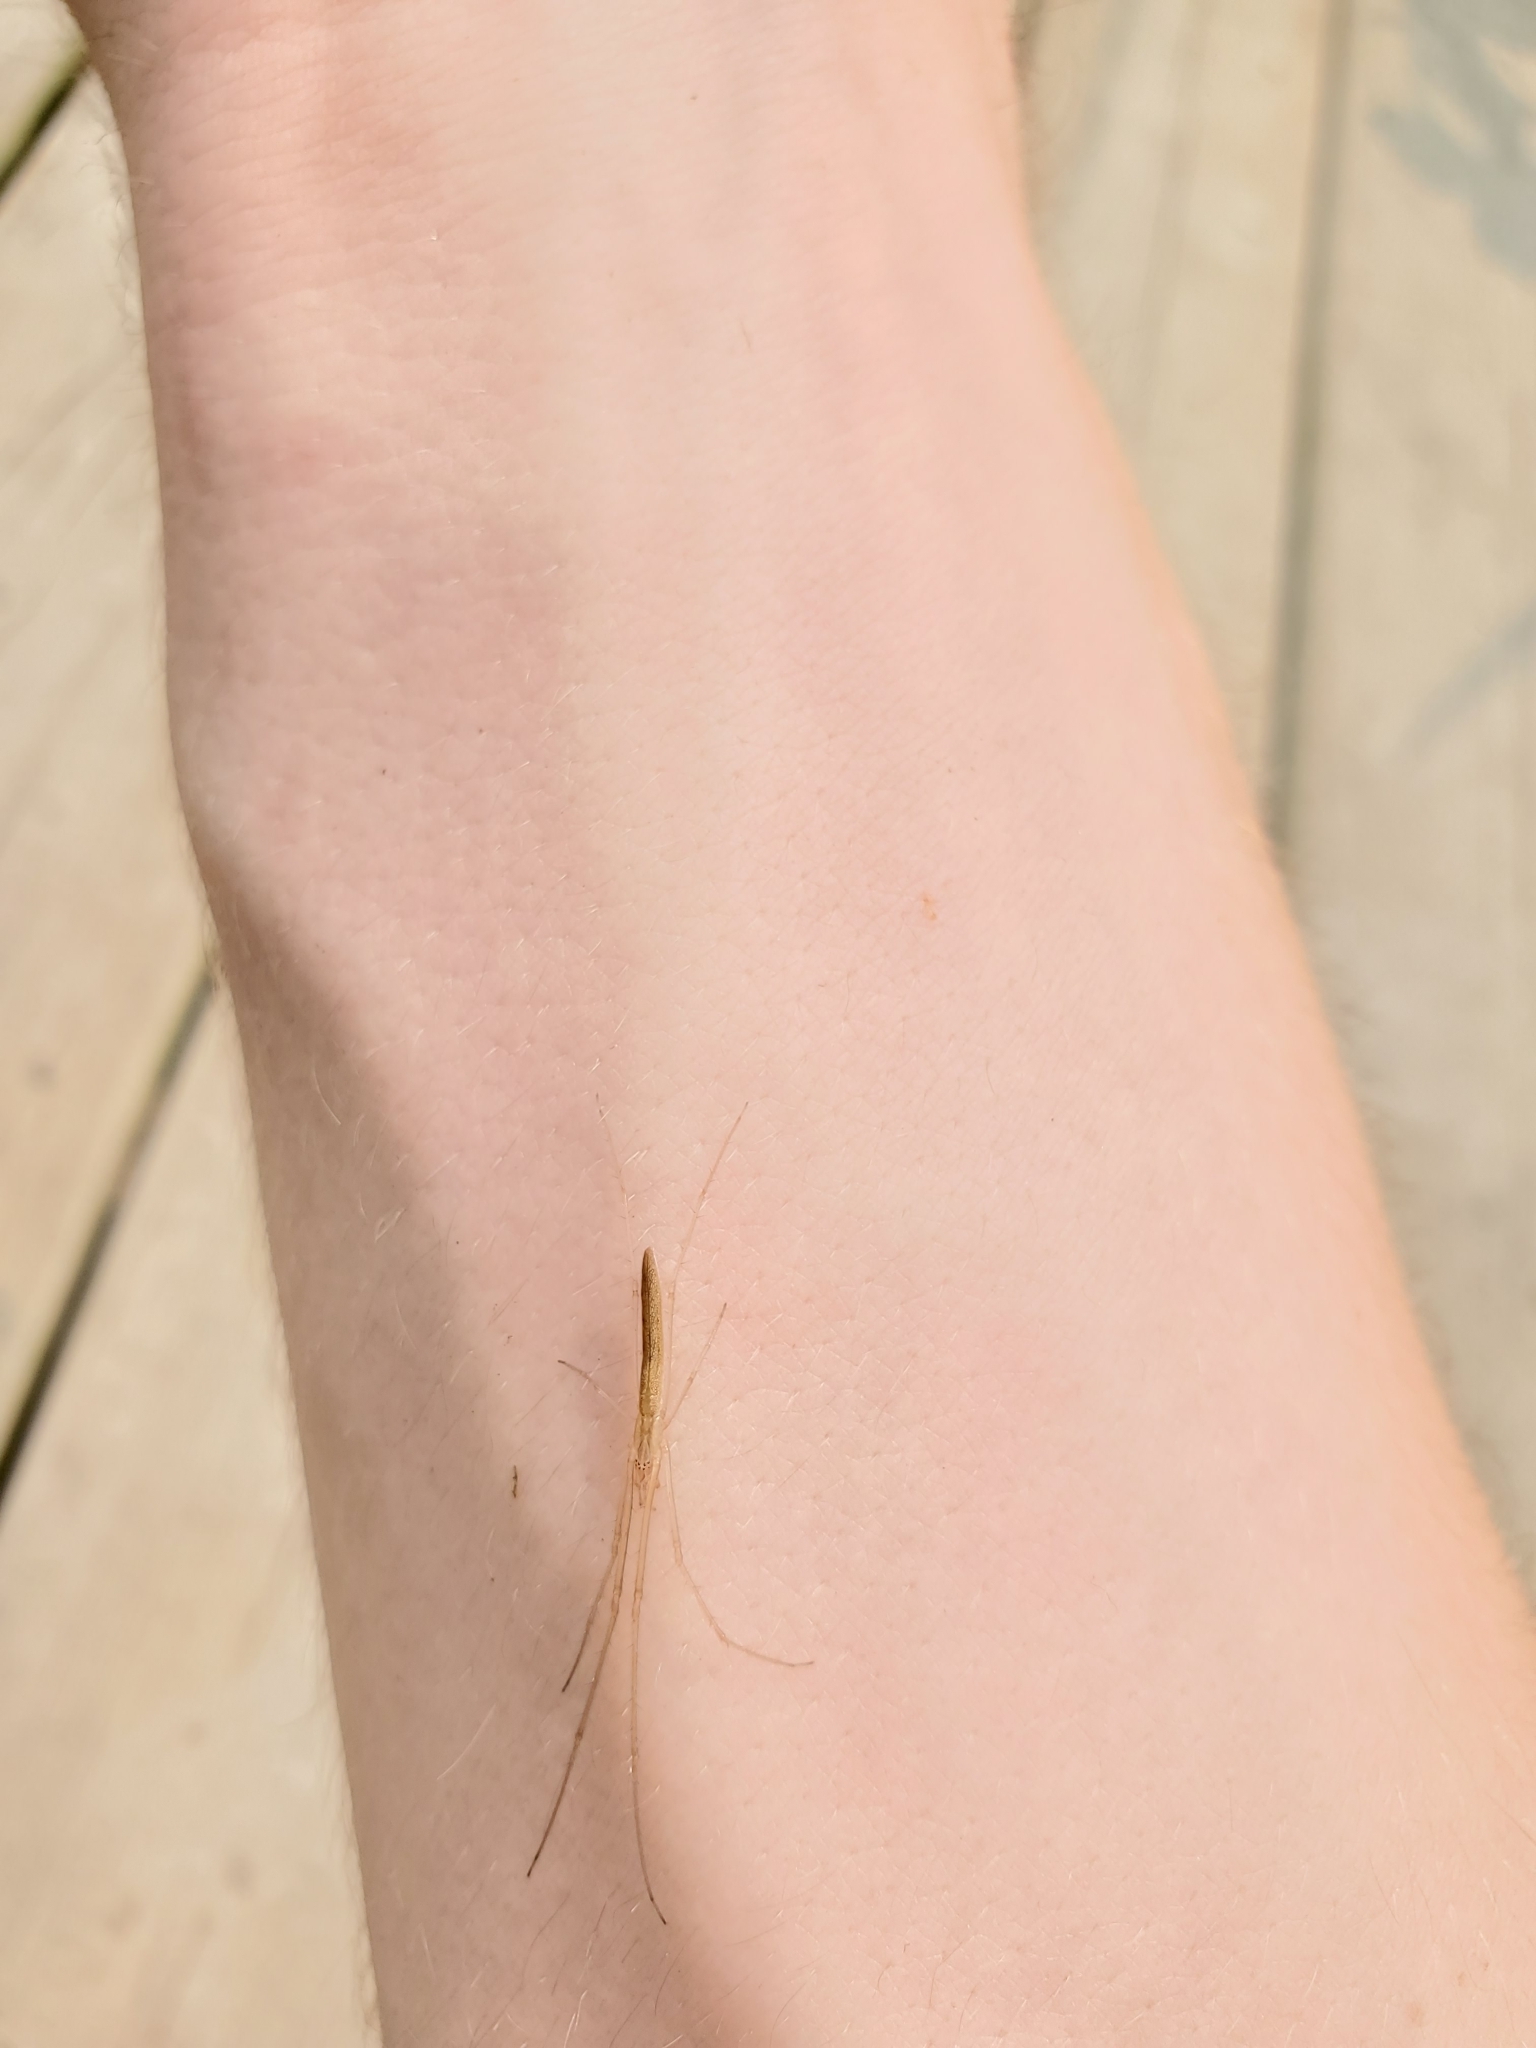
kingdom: Animalia
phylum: Arthropoda
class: Arachnida
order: Araneae
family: Tetragnathidae
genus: Tetragnatha
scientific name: Tetragnatha
